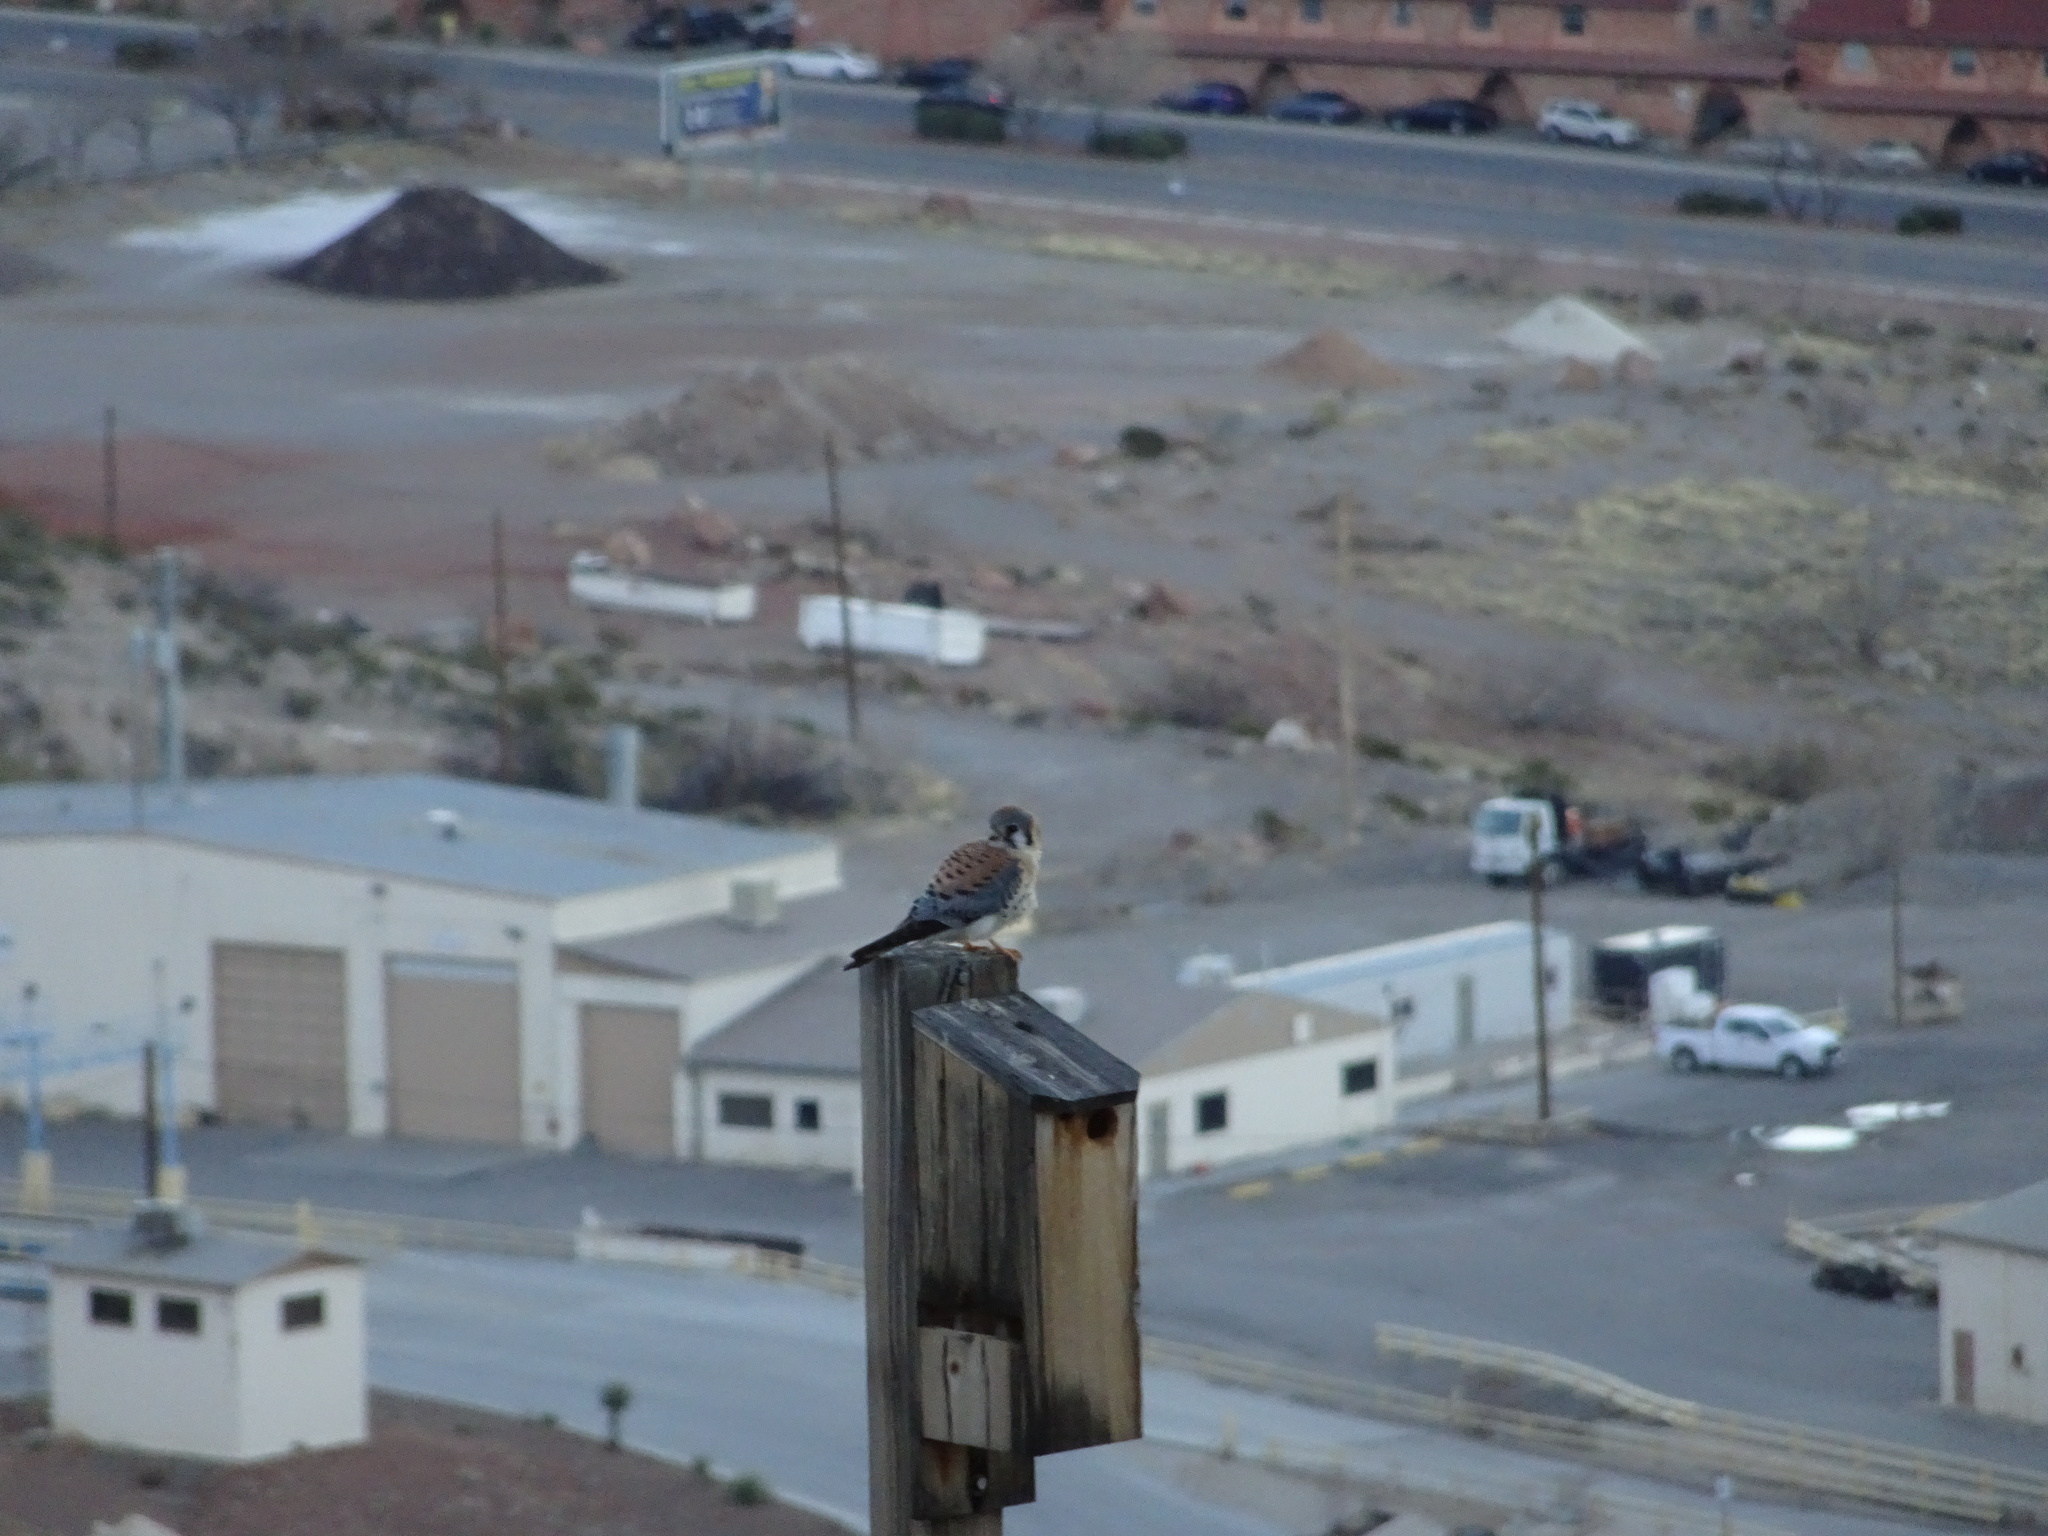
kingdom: Animalia
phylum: Chordata
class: Aves
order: Falconiformes
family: Falconidae
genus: Falco
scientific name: Falco sparverius
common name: American kestrel
